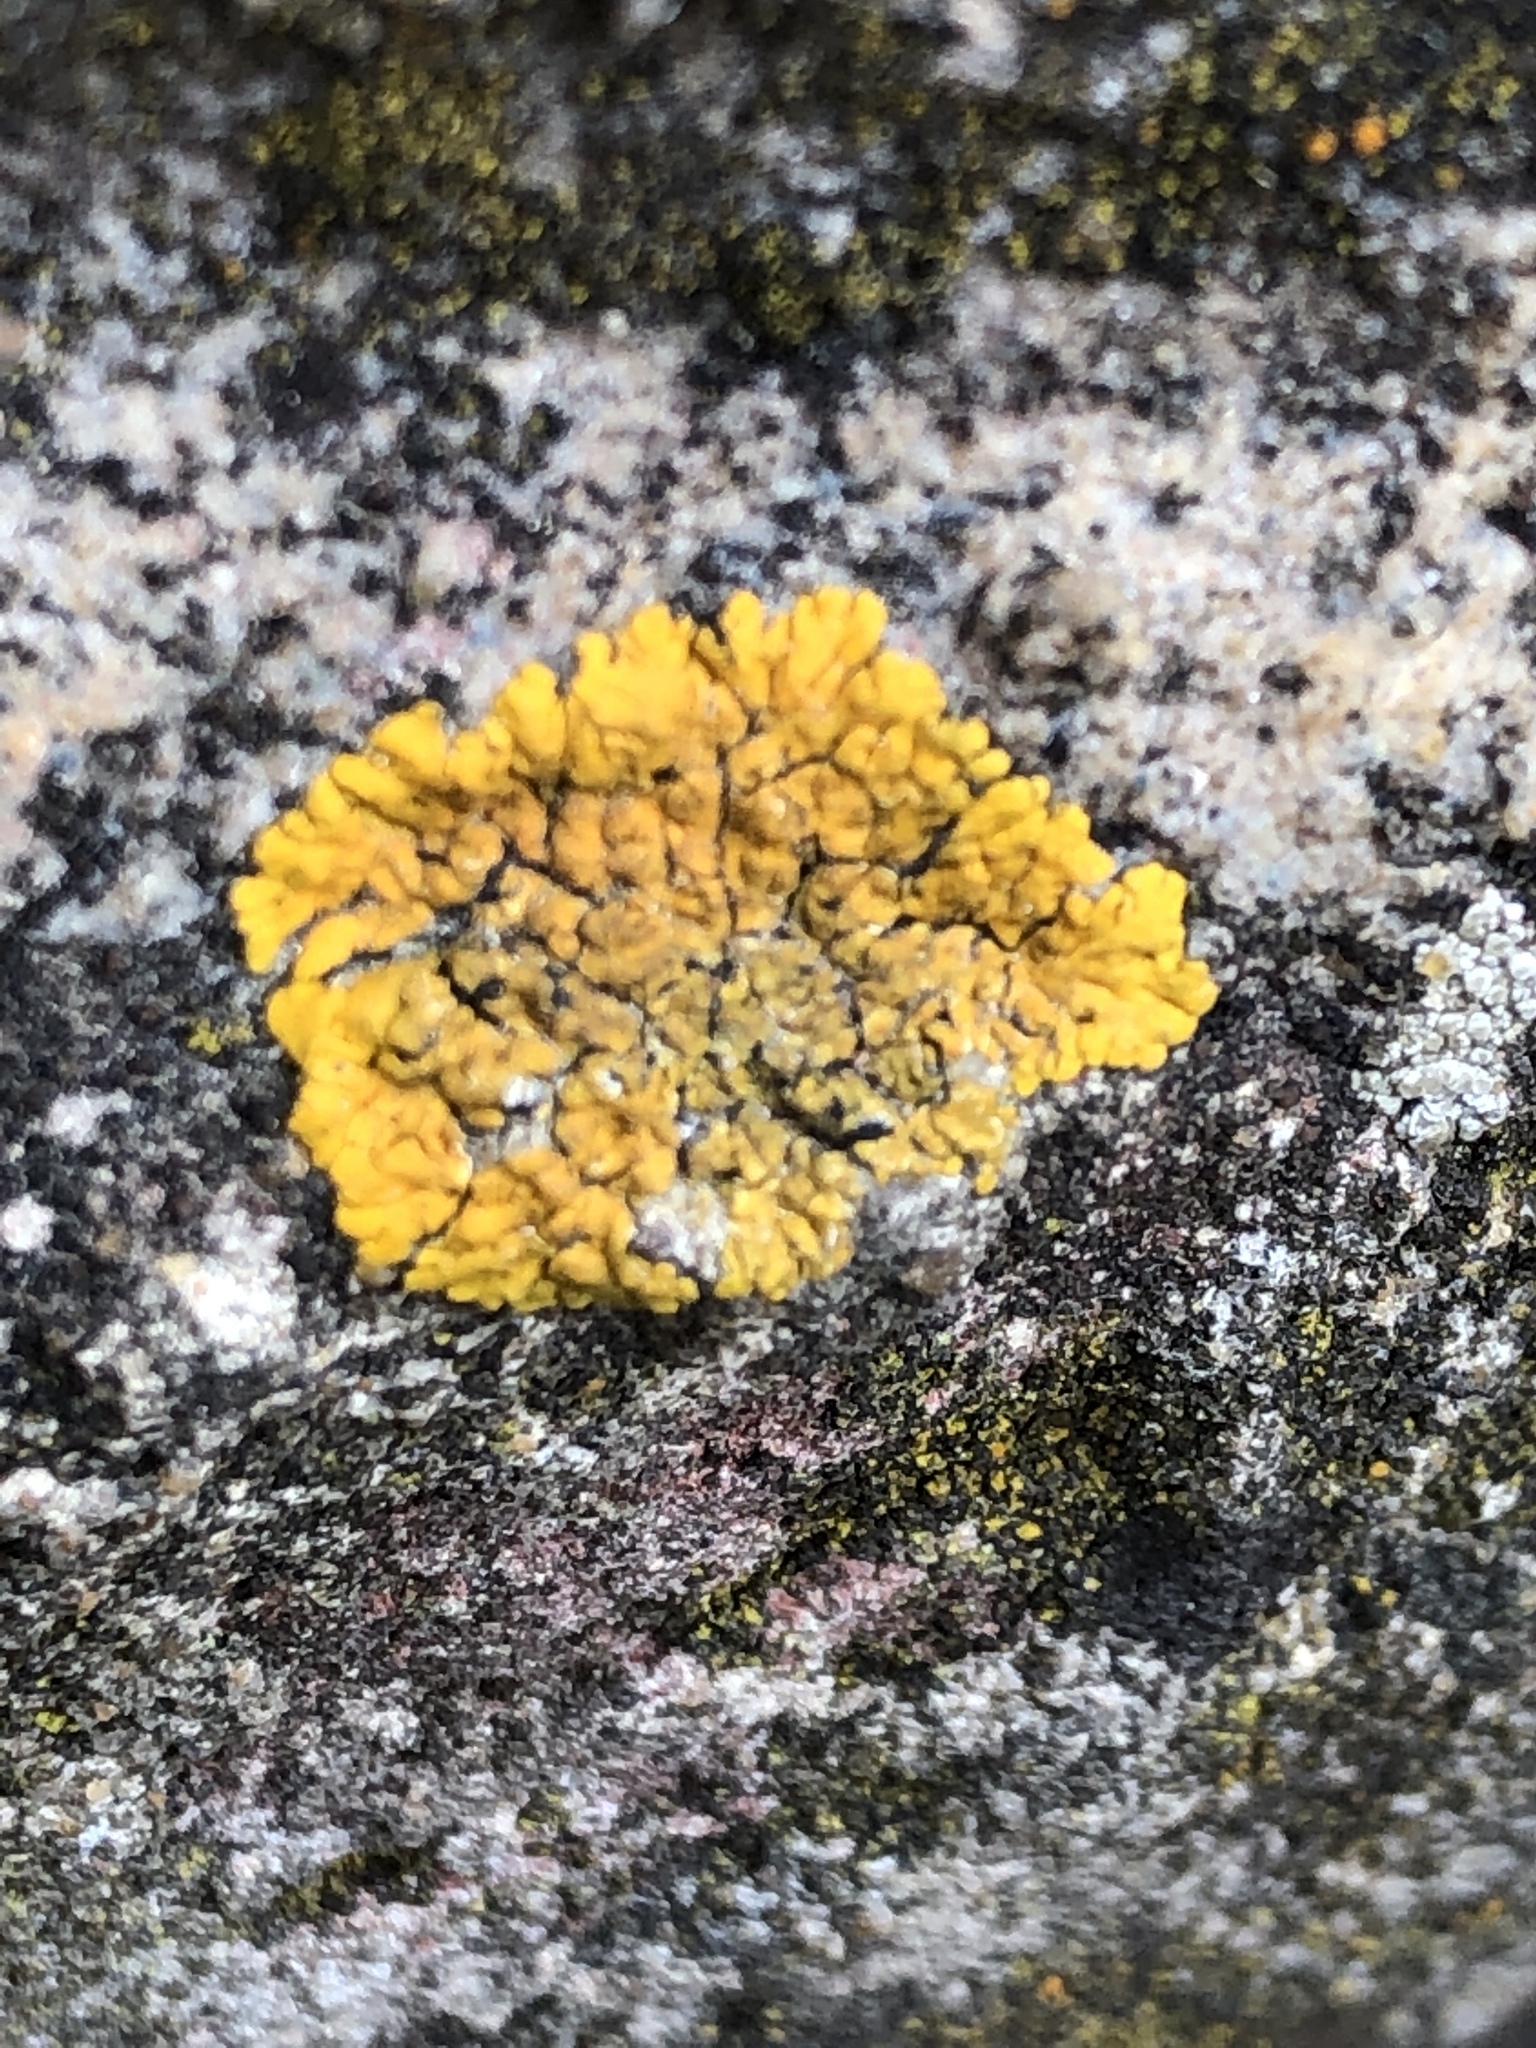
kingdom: Fungi
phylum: Ascomycota
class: Lecanoromycetes
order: Teloschistales
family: Teloschistaceae
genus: Xanthoria
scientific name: Xanthoria parietina
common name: Common orange lichen
